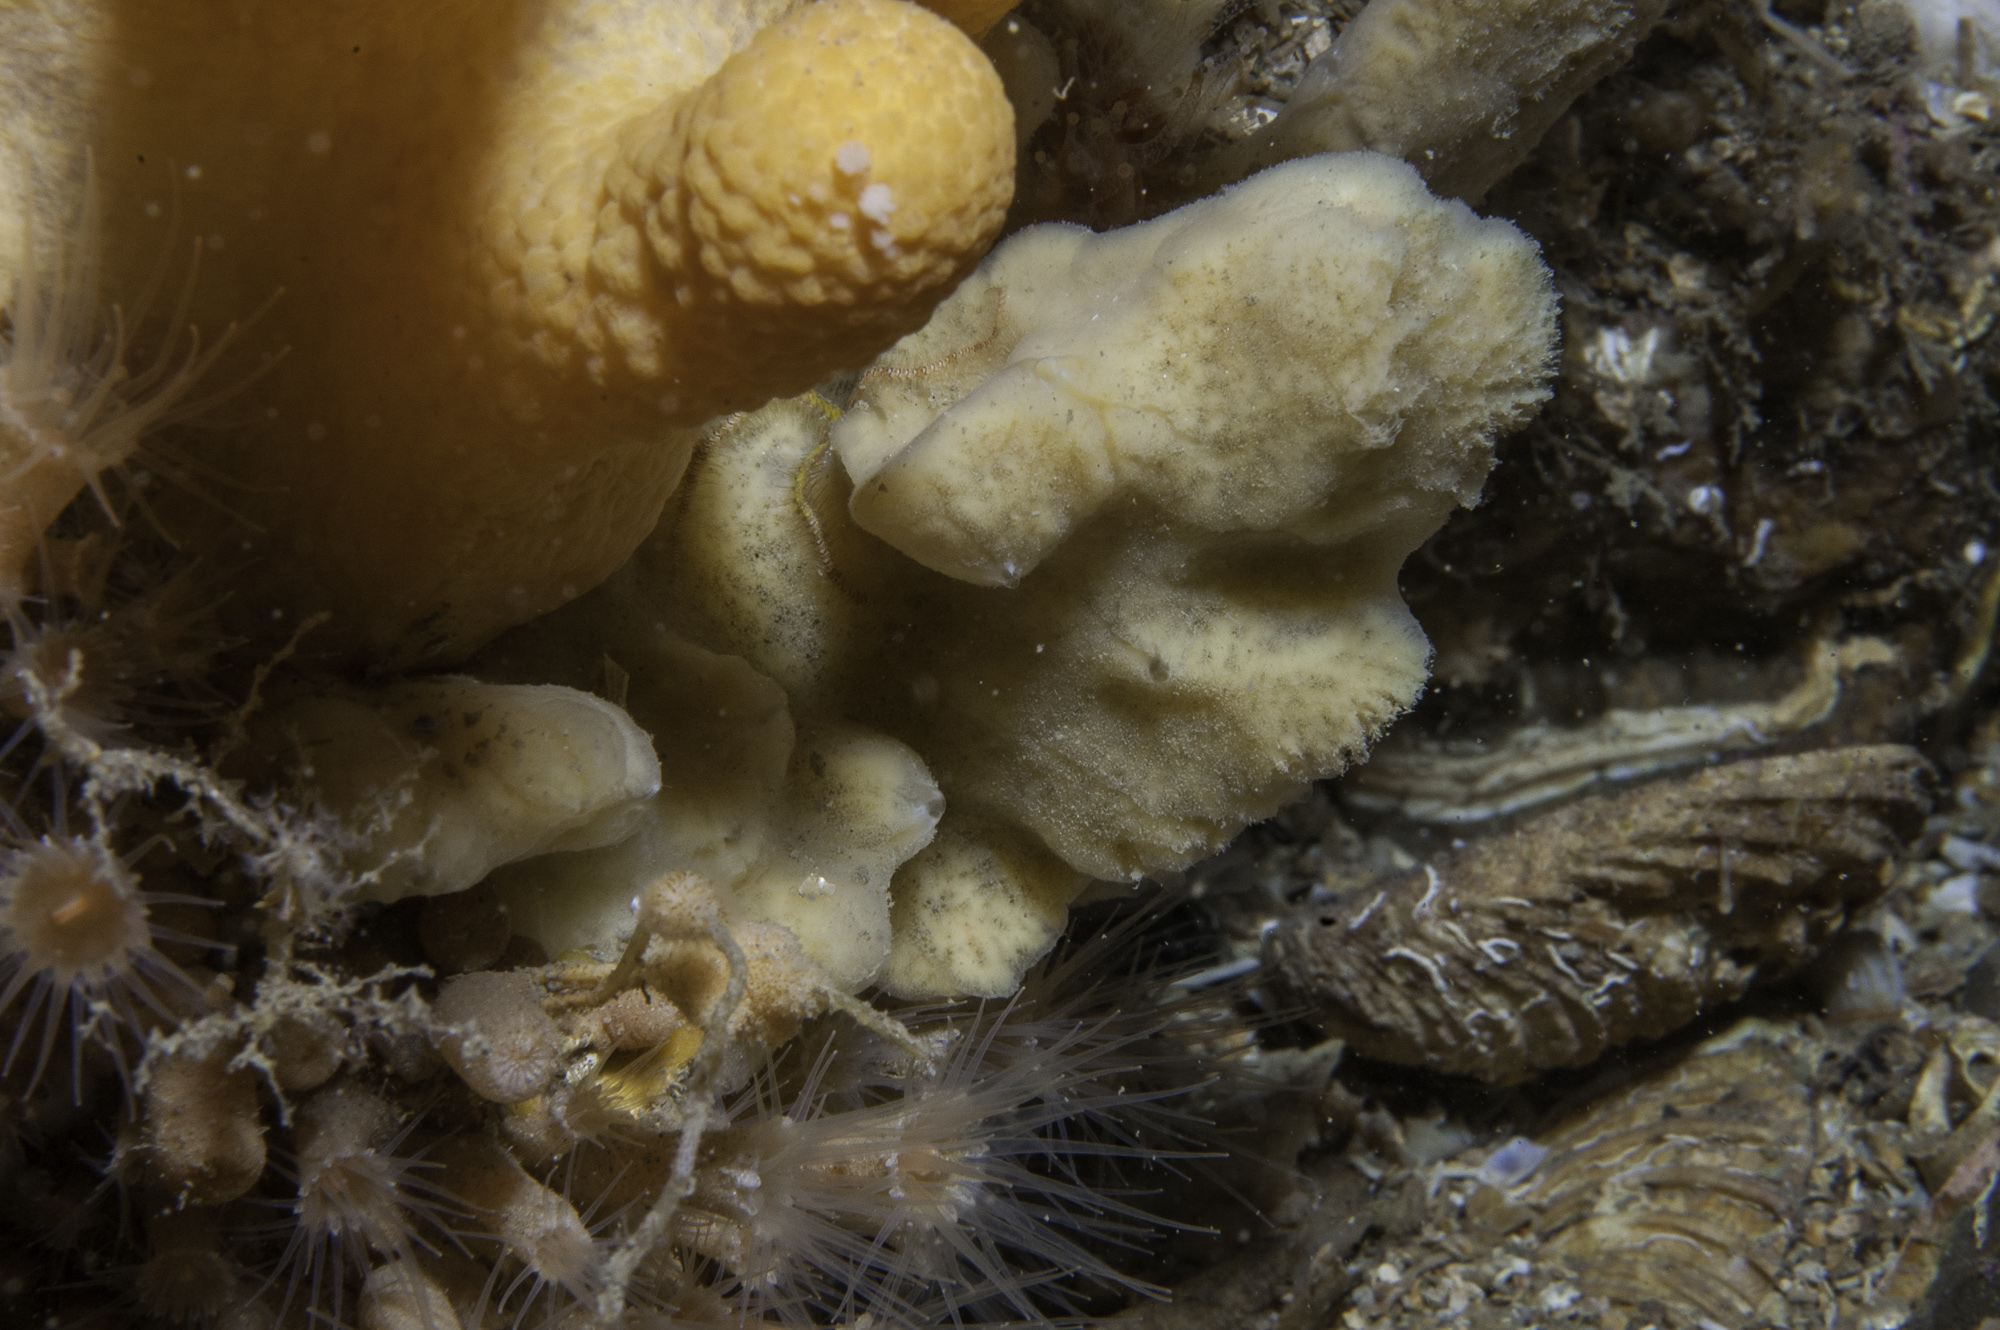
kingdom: Animalia
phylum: Porifera
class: Demospongiae
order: Poecilosclerida
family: Microcionidae
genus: Clathria
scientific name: Clathria barleei
